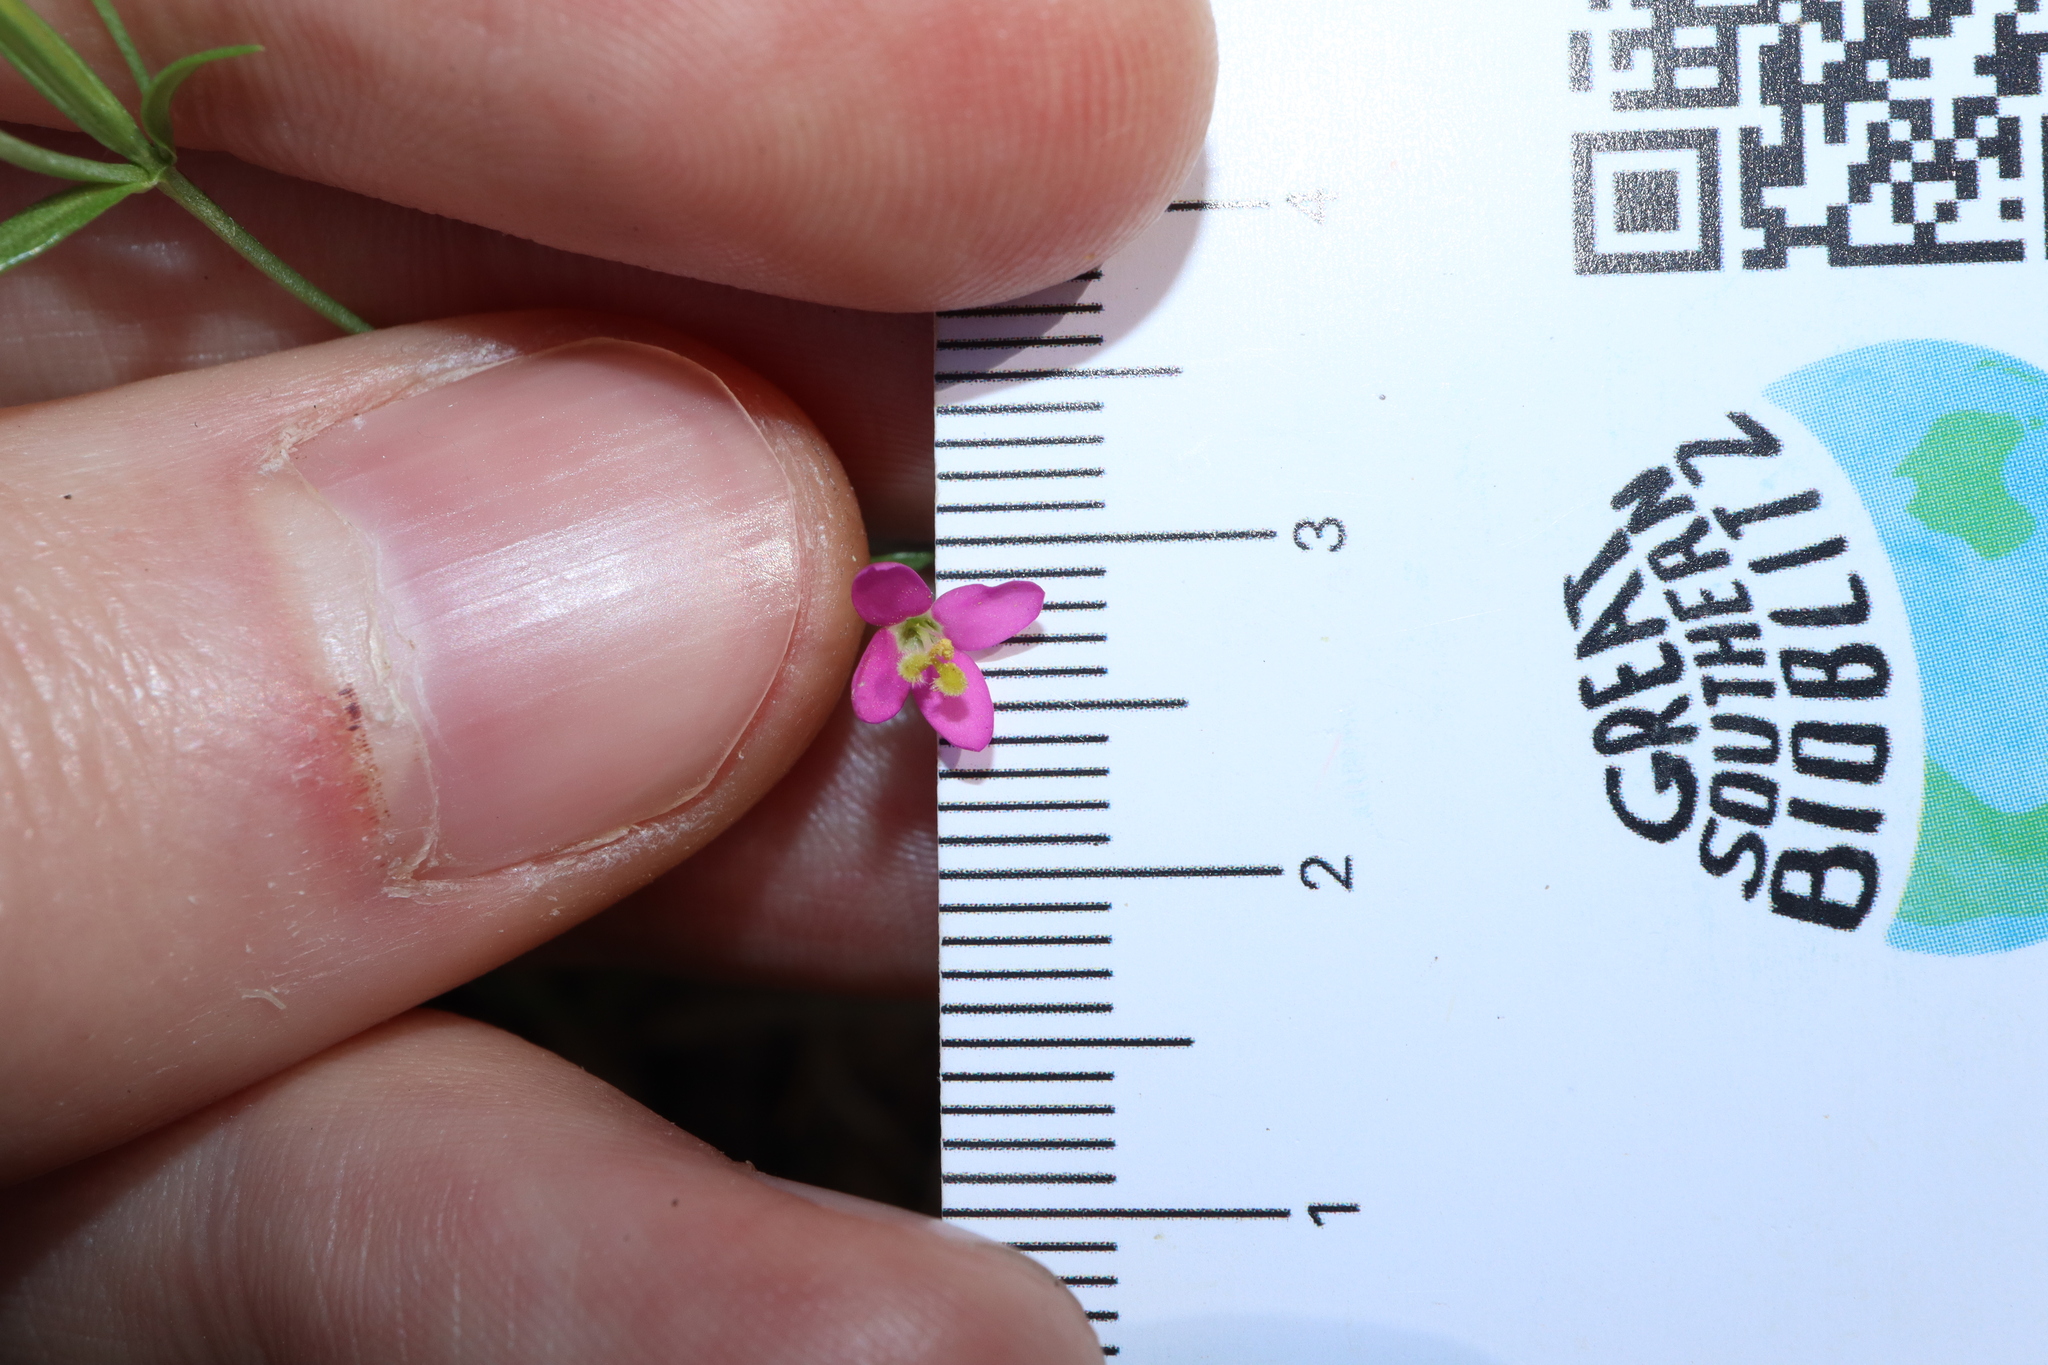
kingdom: Plantae
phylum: Tracheophyta
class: Magnoliopsida
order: Gentianales
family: Gentianaceae
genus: Centaurium
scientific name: Centaurium tenuiflorum
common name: Slender centaury
